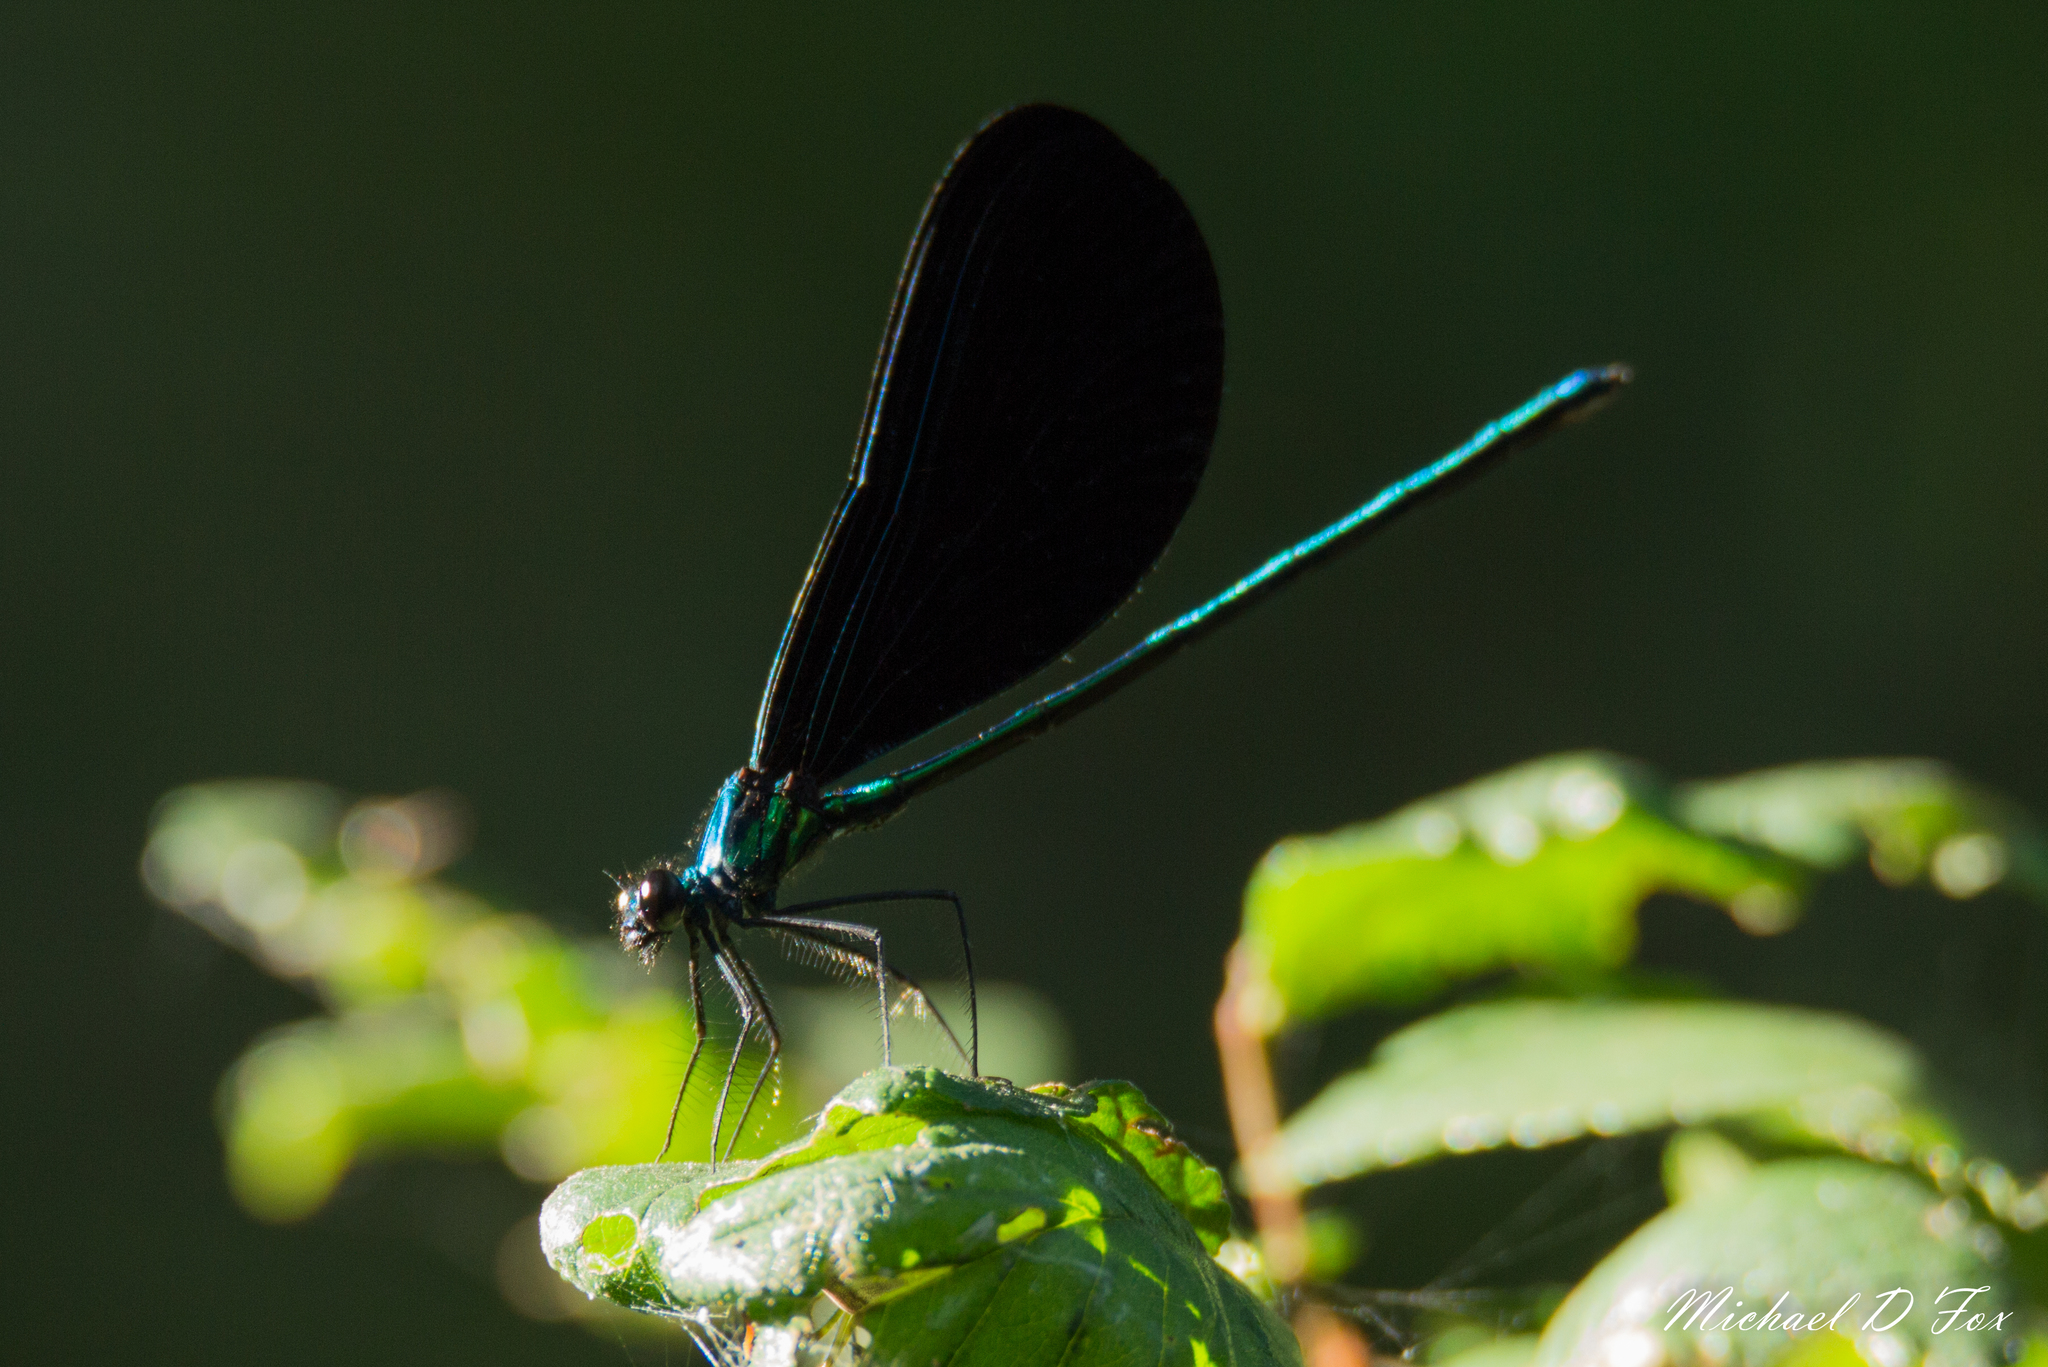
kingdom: Animalia
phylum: Arthropoda
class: Insecta
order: Odonata
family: Calopterygidae
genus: Calopteryx
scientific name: Calopteryx maculata
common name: Ebony jewelwing
